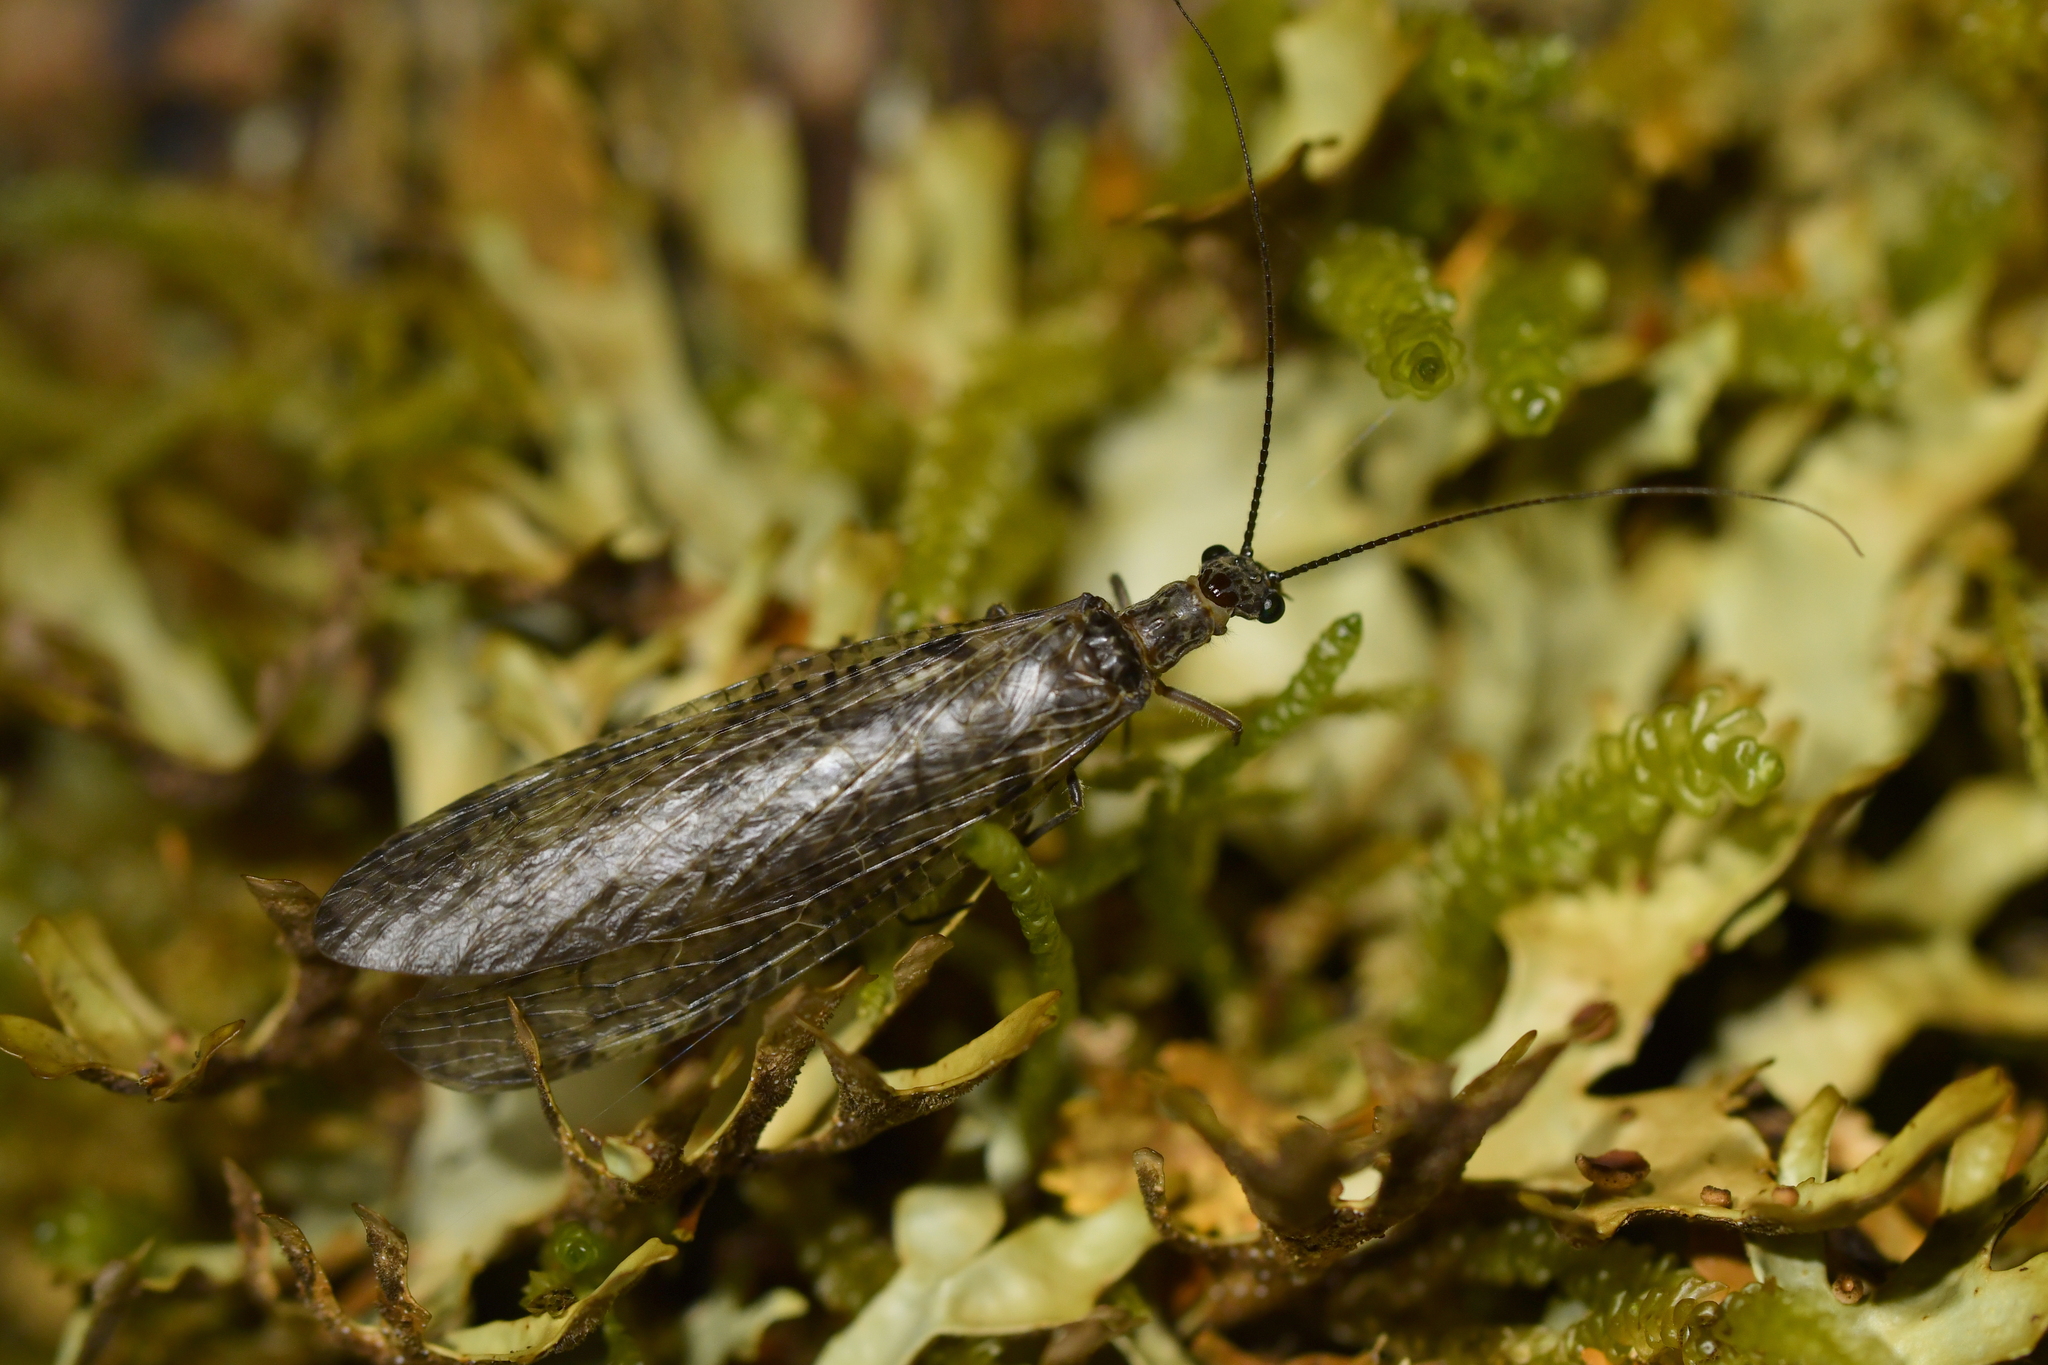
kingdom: Animalia
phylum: Arthropoda
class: Insecta
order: Megaloptera
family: Corydalidae
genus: Archichauliodes
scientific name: Archichauliodes diversus
